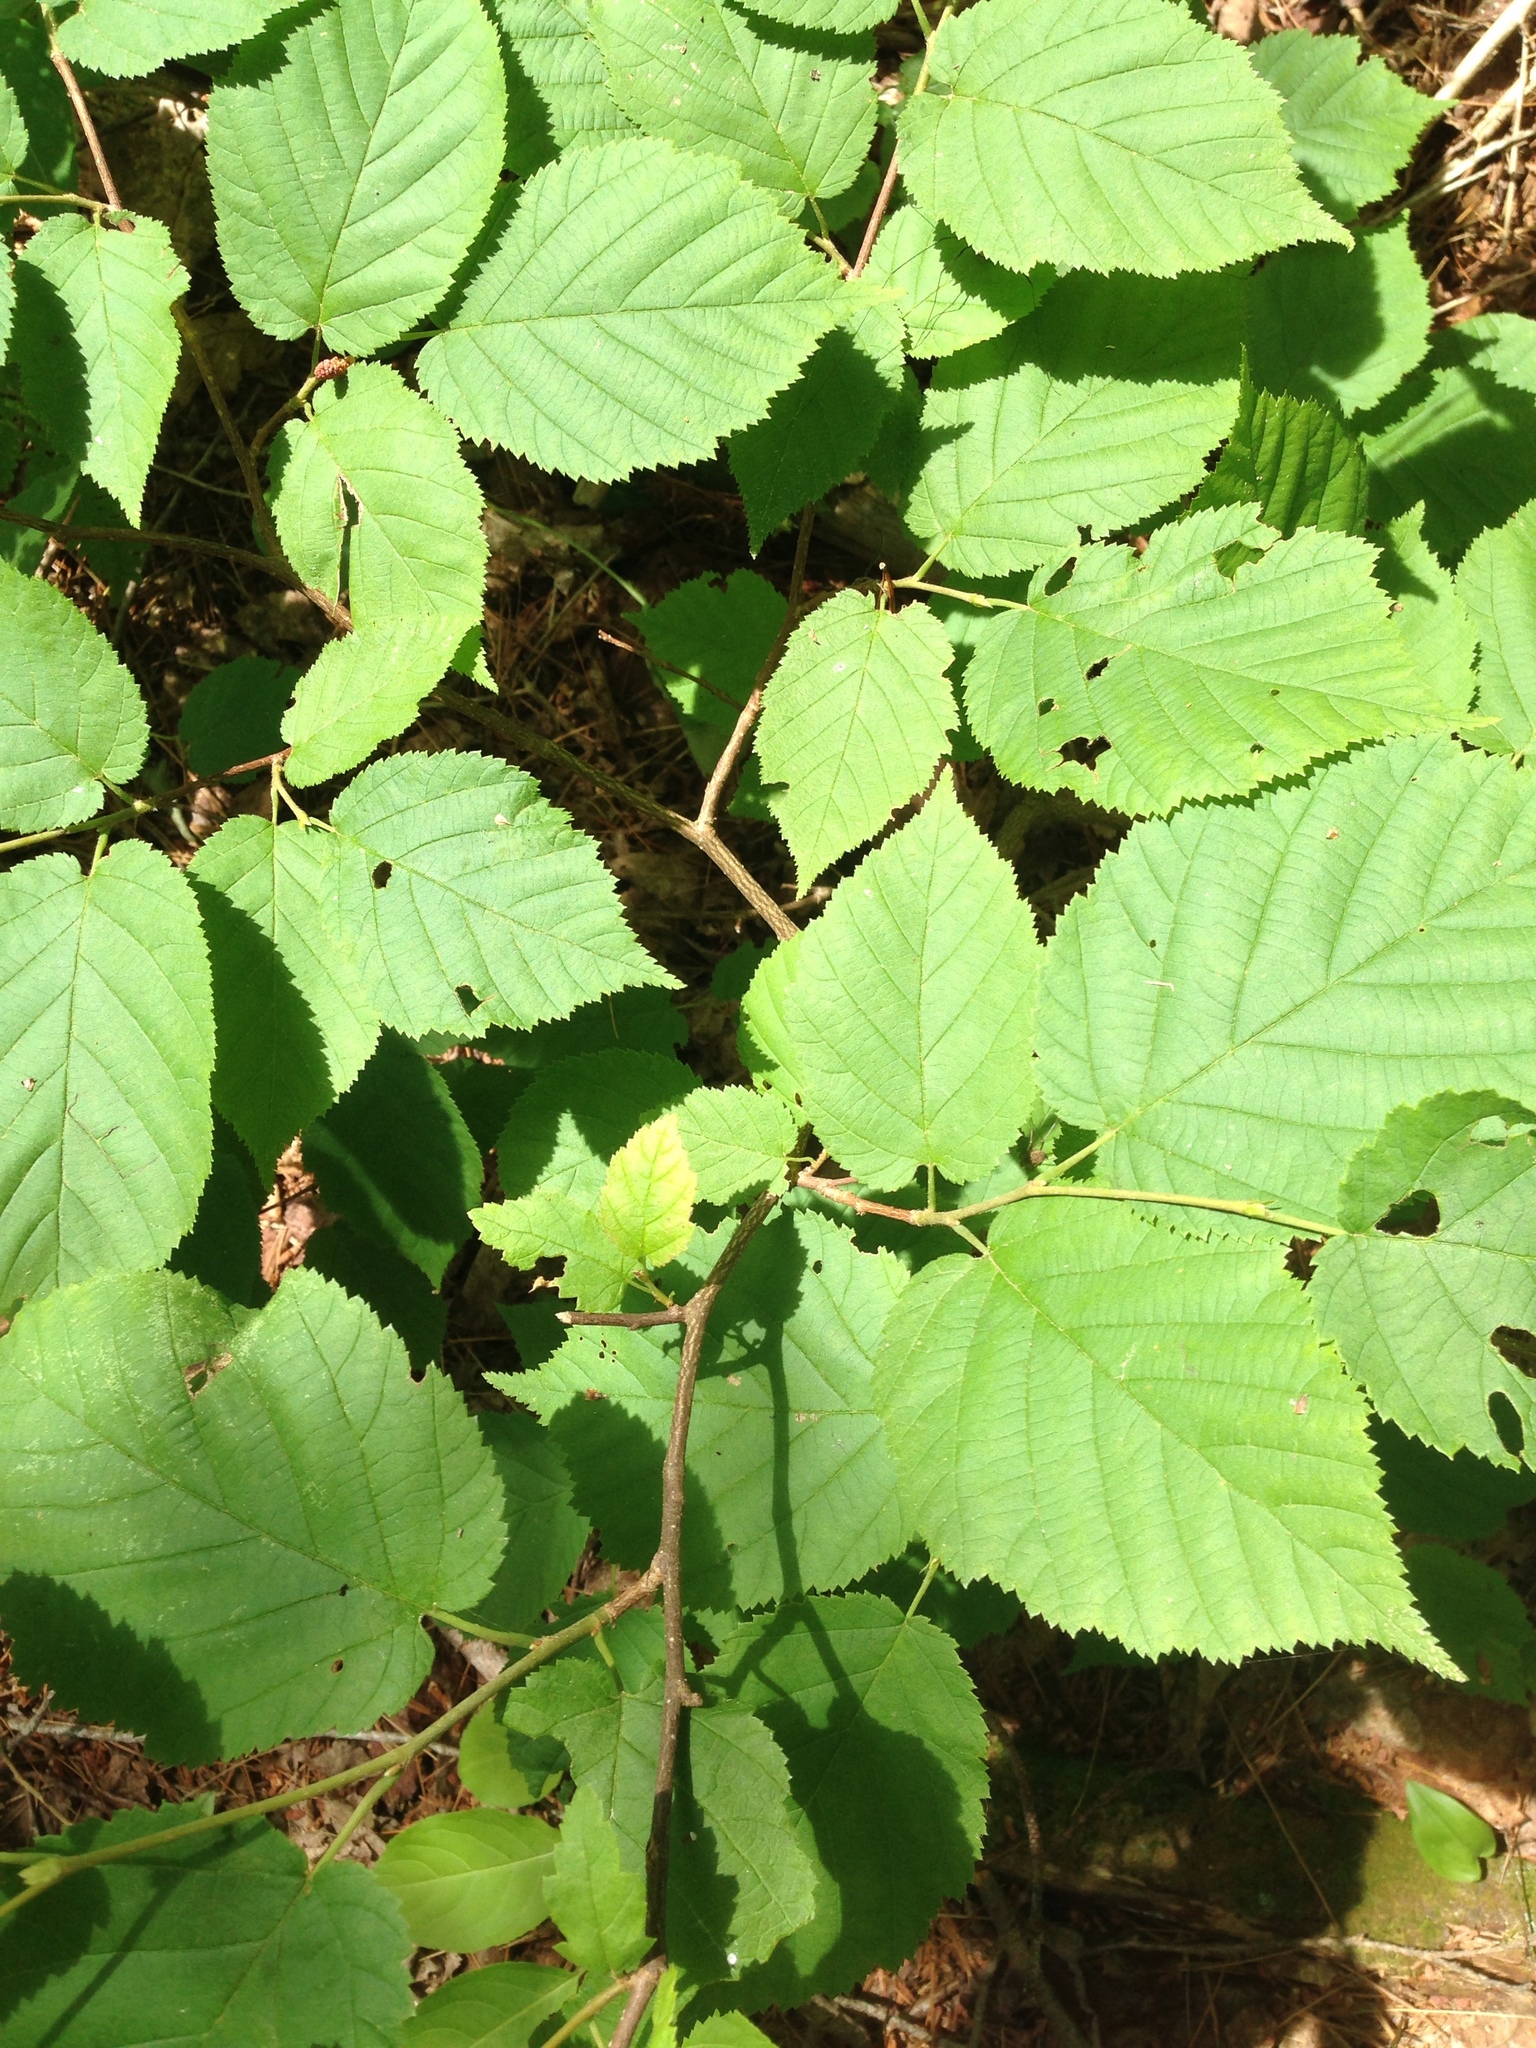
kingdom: Plantae
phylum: Tracheophyta
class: Magnoliopsida
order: Fagales
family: Betulaceae
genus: Corylus
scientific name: Corylus cornuta
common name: Beaked hazel
